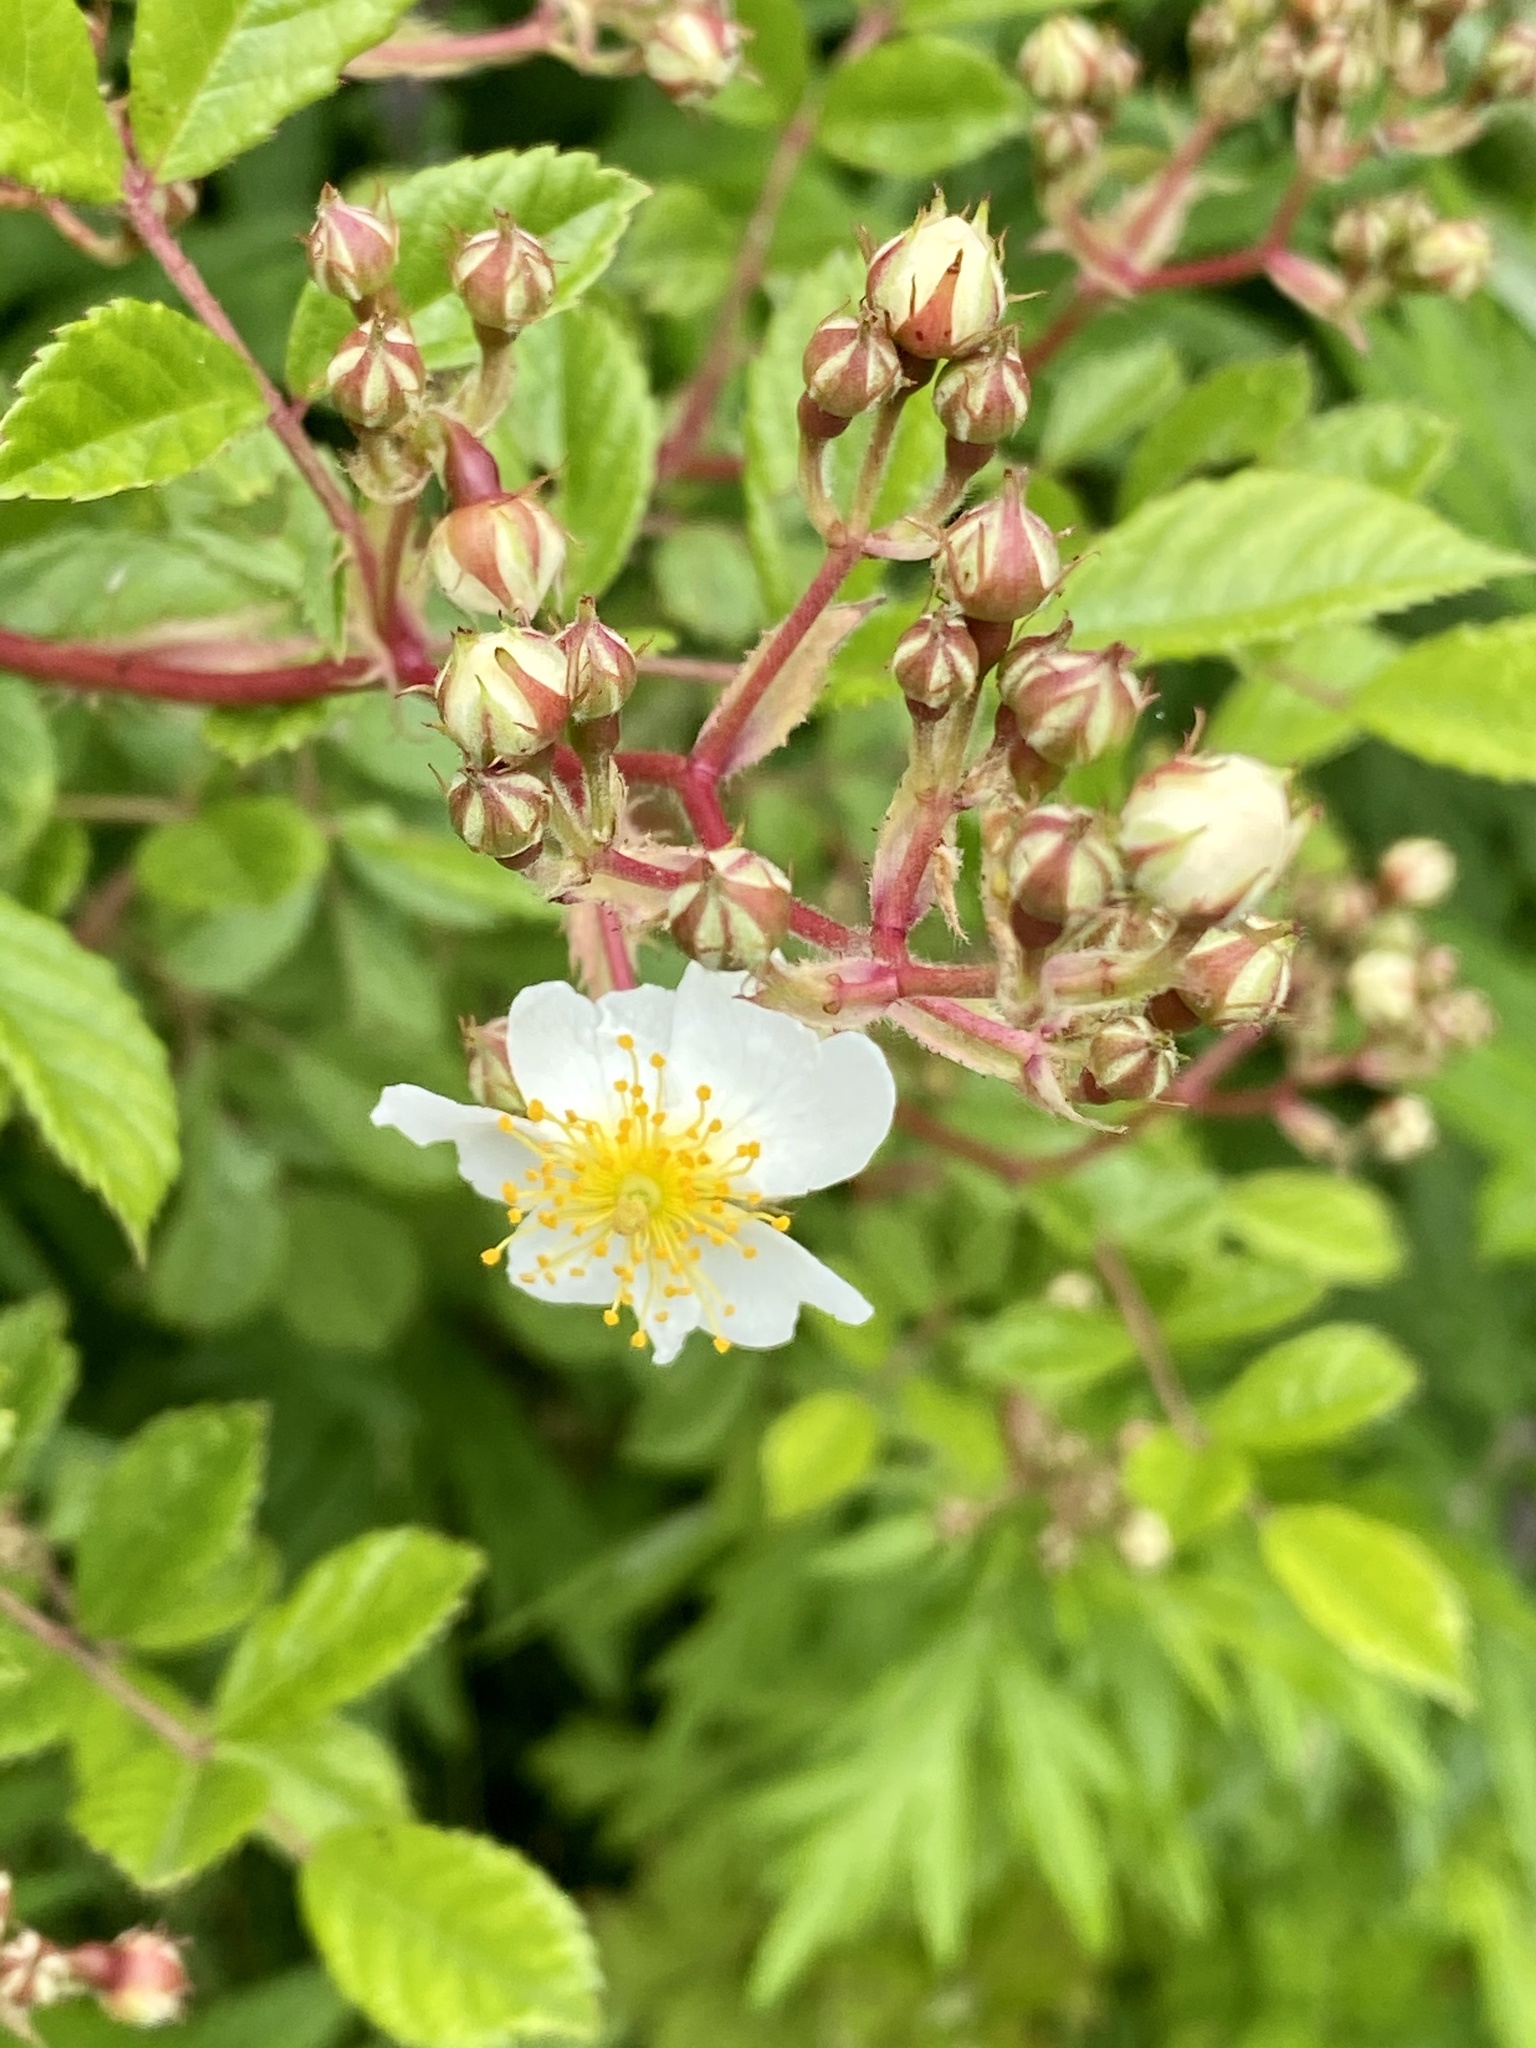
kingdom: Plantae
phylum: Tracheophyta
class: Magnoliopsida
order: Rosales
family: Rosaceae
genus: Rosa
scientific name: Rosa multiflora
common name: Multiflora rose
